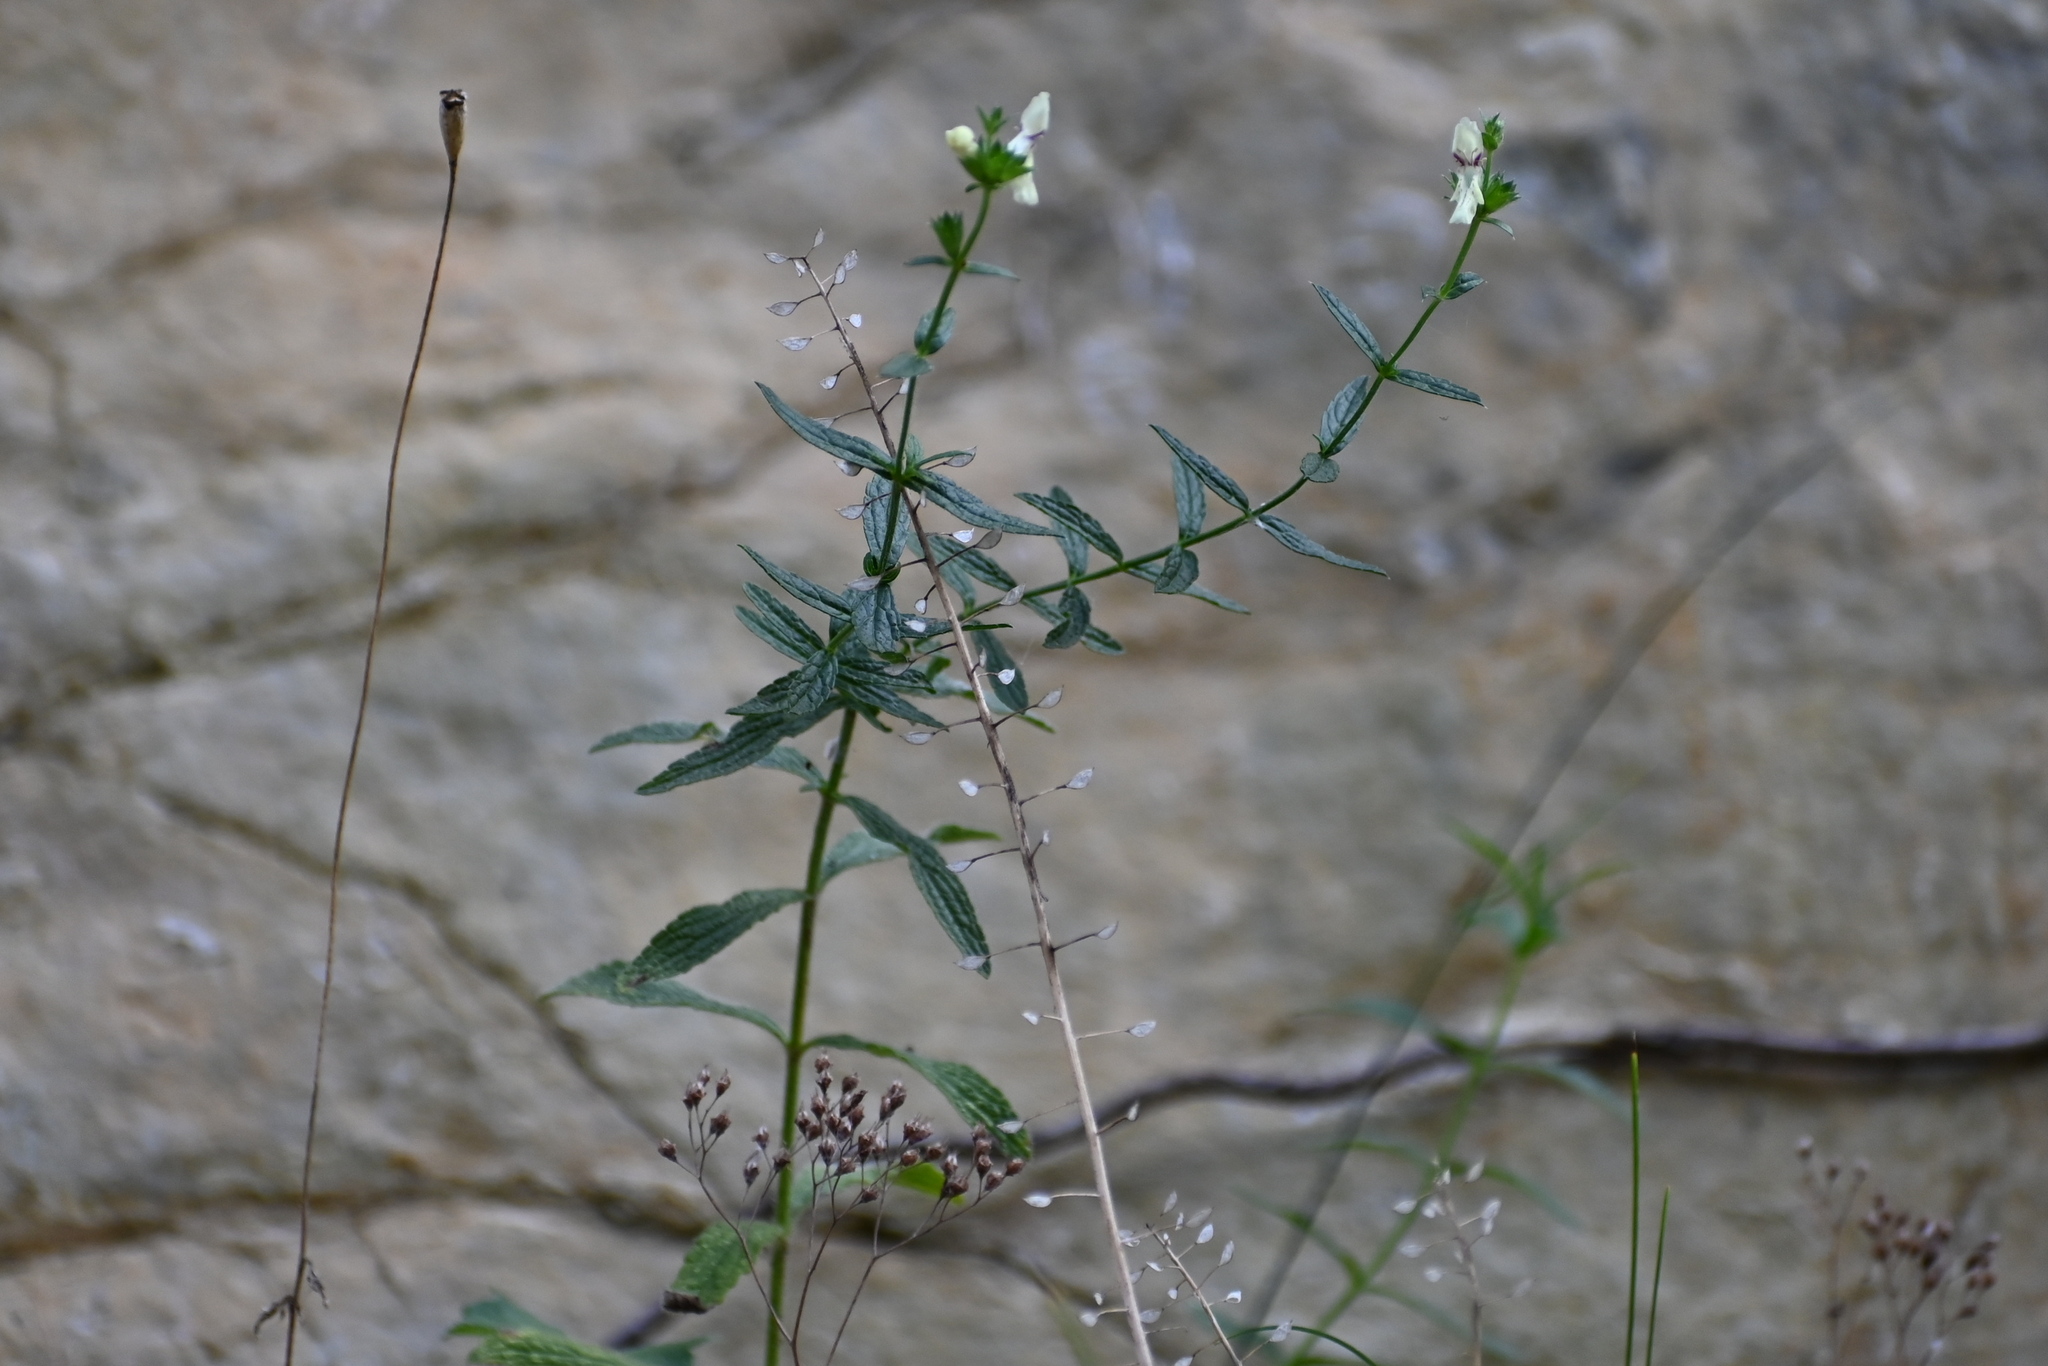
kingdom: Plantae
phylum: Tracheophyta
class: Magnoliopsida
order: Lamiales
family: Lamiaceae
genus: Stachys
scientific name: Stachys recta
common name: Perennial yellow-woundwort
